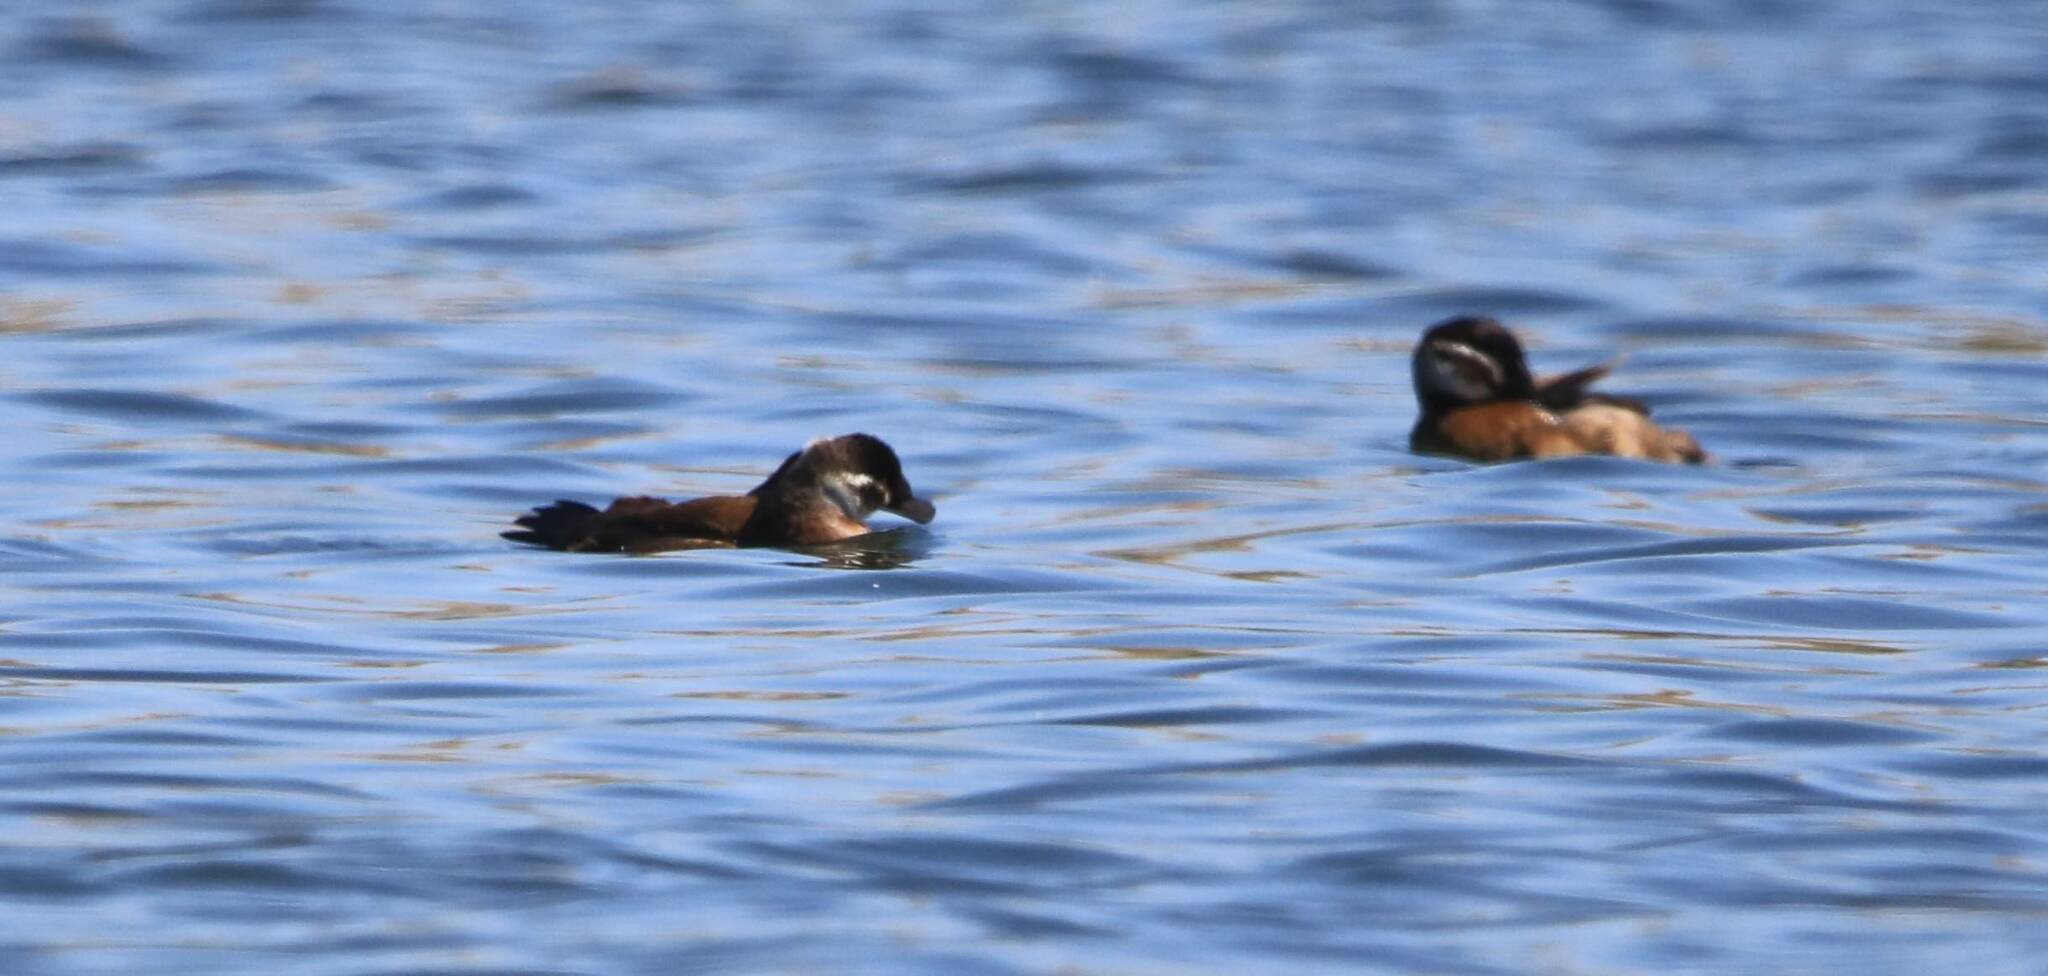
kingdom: Animalia
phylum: Chordata
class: Aves
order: Anseriformes
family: Anatidae
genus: Oxyura
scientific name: Oxyura leucocephala
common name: White-headed duck
